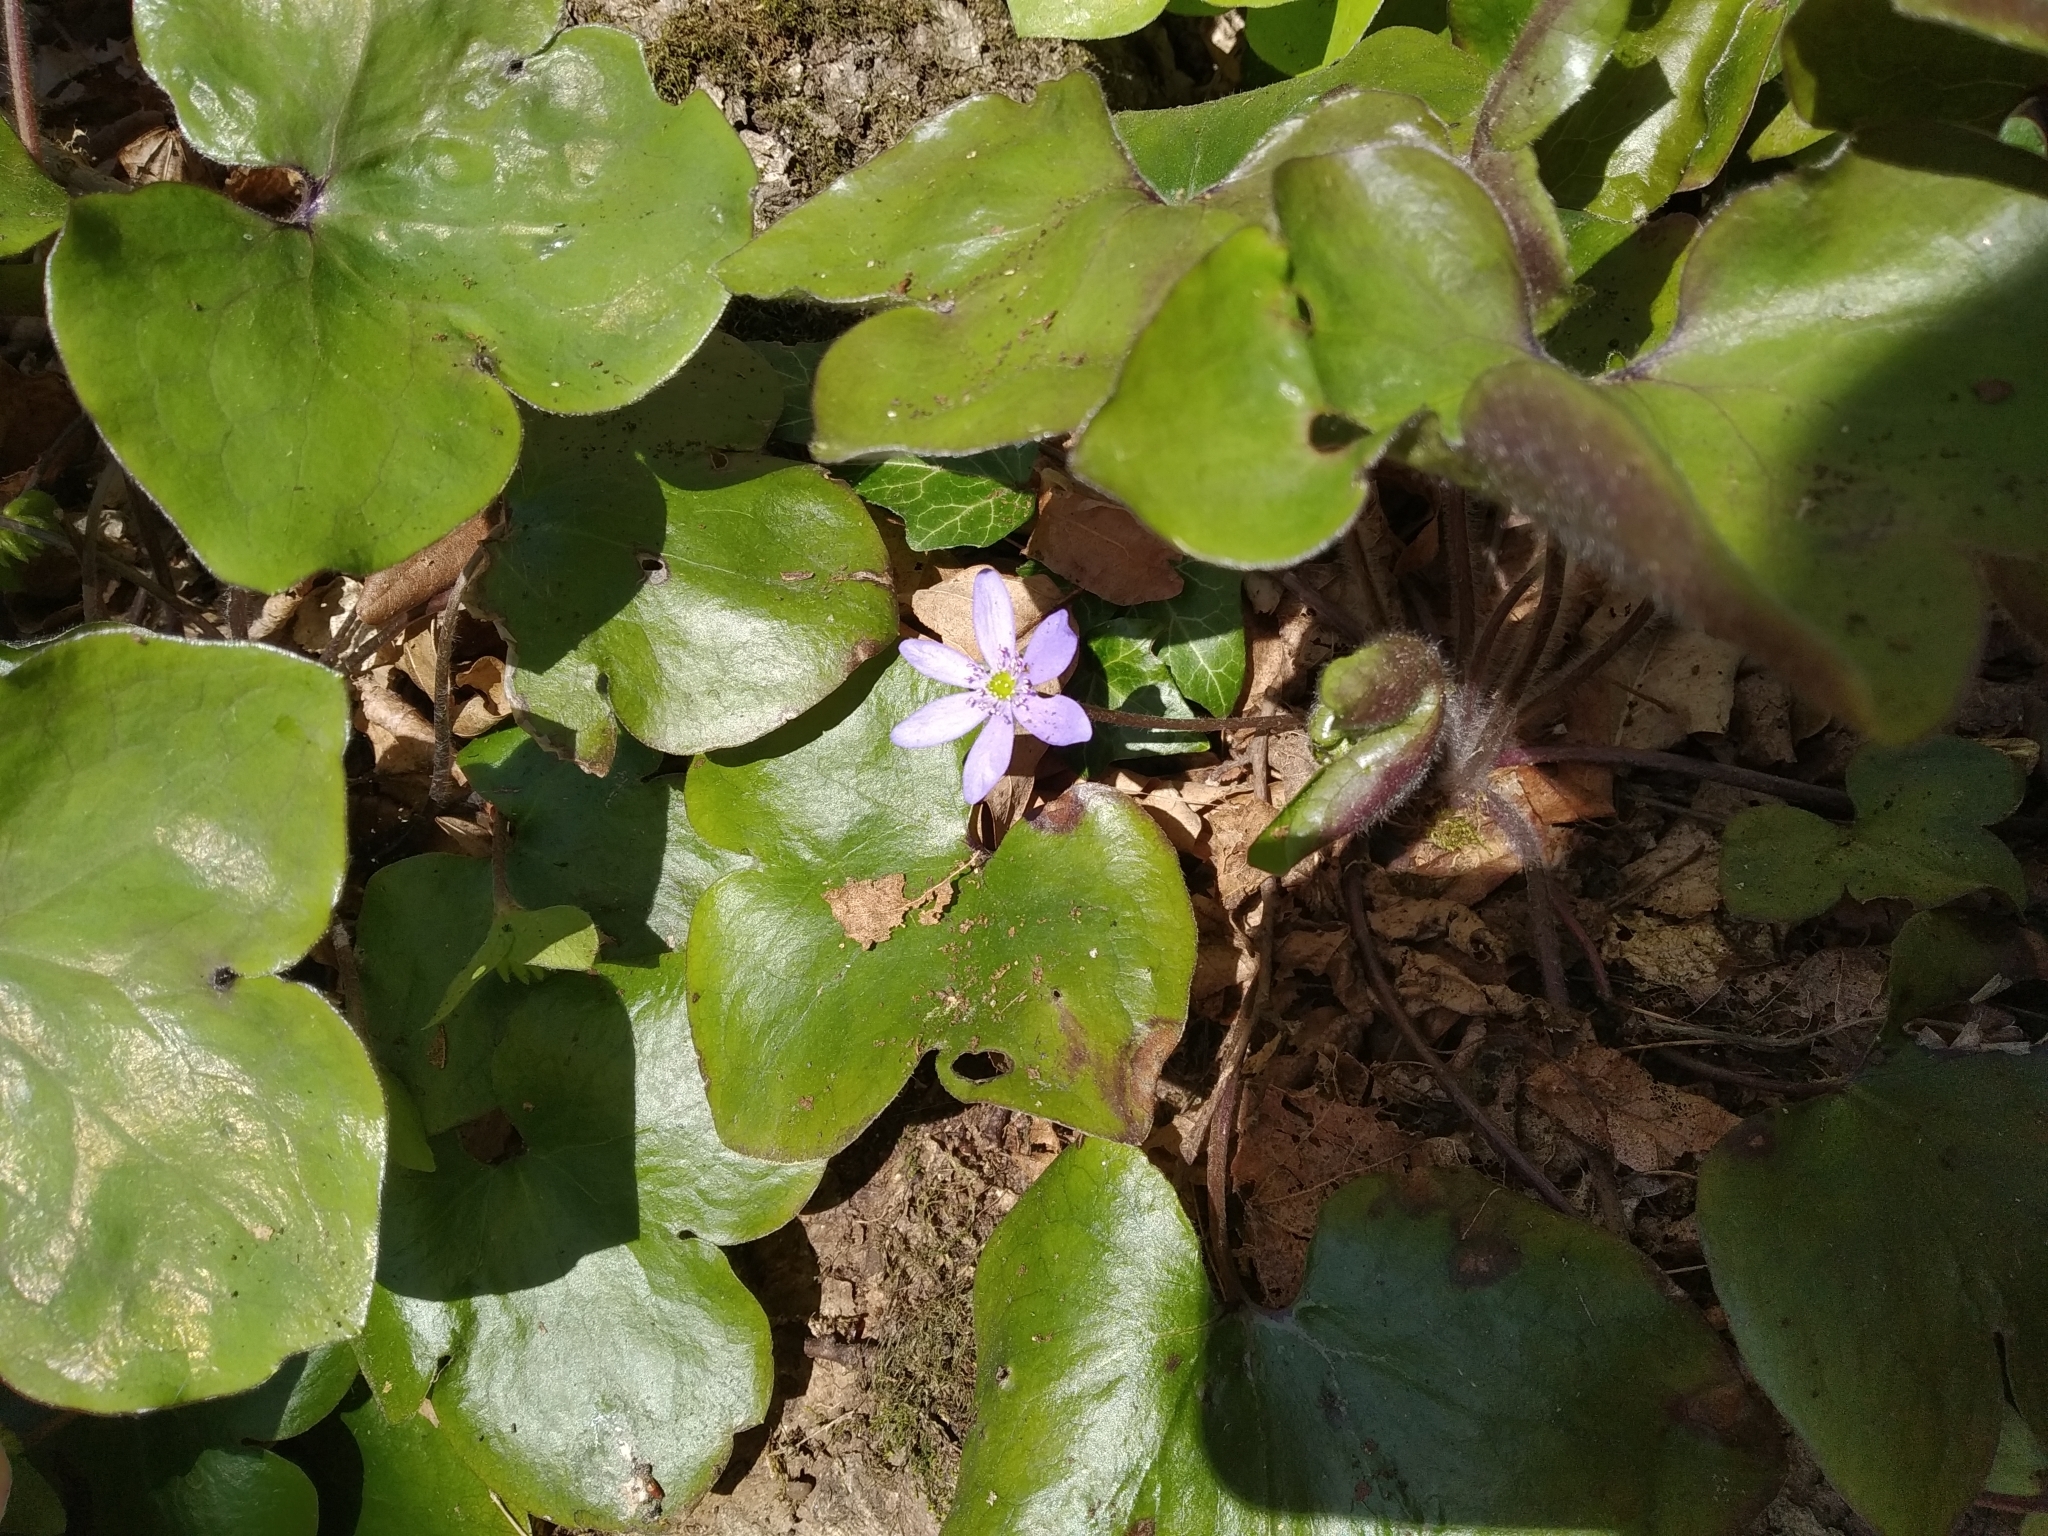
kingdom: Plantae
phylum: Tracheophyta
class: Magnoliopsida
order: Ranunculales
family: Ranunculaceae
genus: Hepatica
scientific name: Hepatica nobilis
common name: Liverleaf
